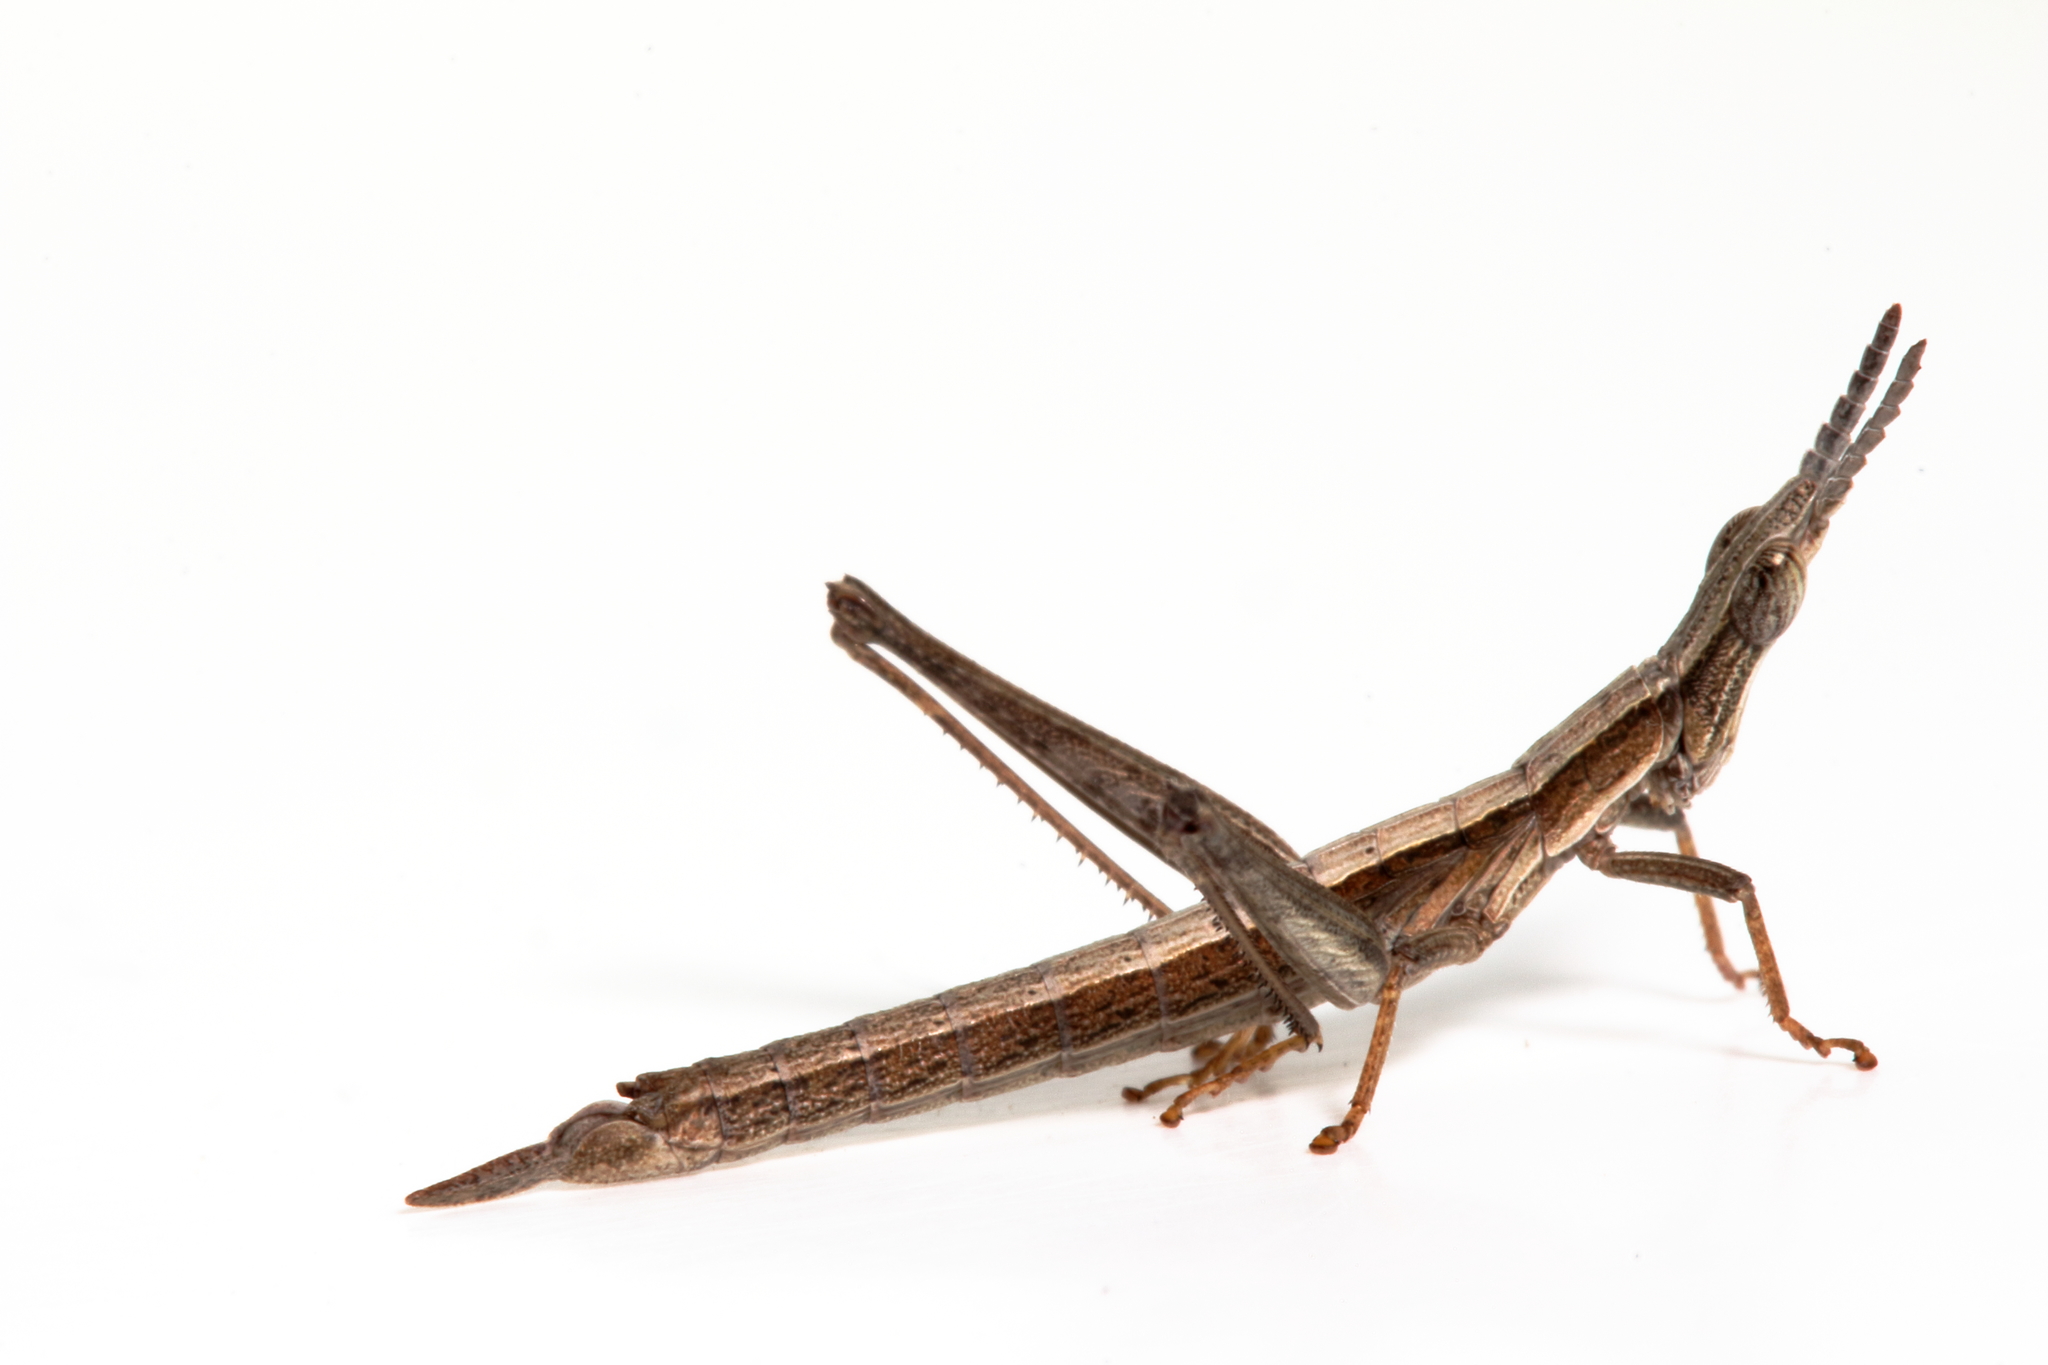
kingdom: Animalia
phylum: Arthropoda
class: Insecta
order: Orthoptera
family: Morabidae
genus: Keyacris
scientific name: Keyacris scurra
